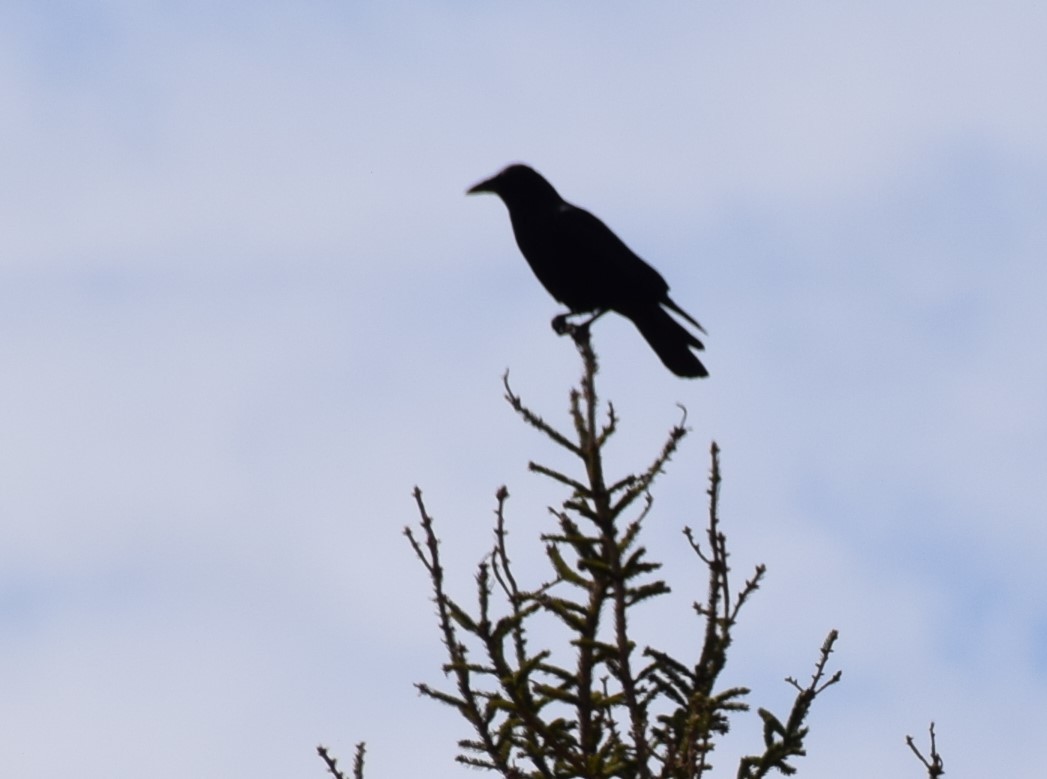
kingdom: Animalia
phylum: Chordata
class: Aves
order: Passeriformes
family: Corvidae
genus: Corvus
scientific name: Corvus brachyrhynchos
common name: American crow
